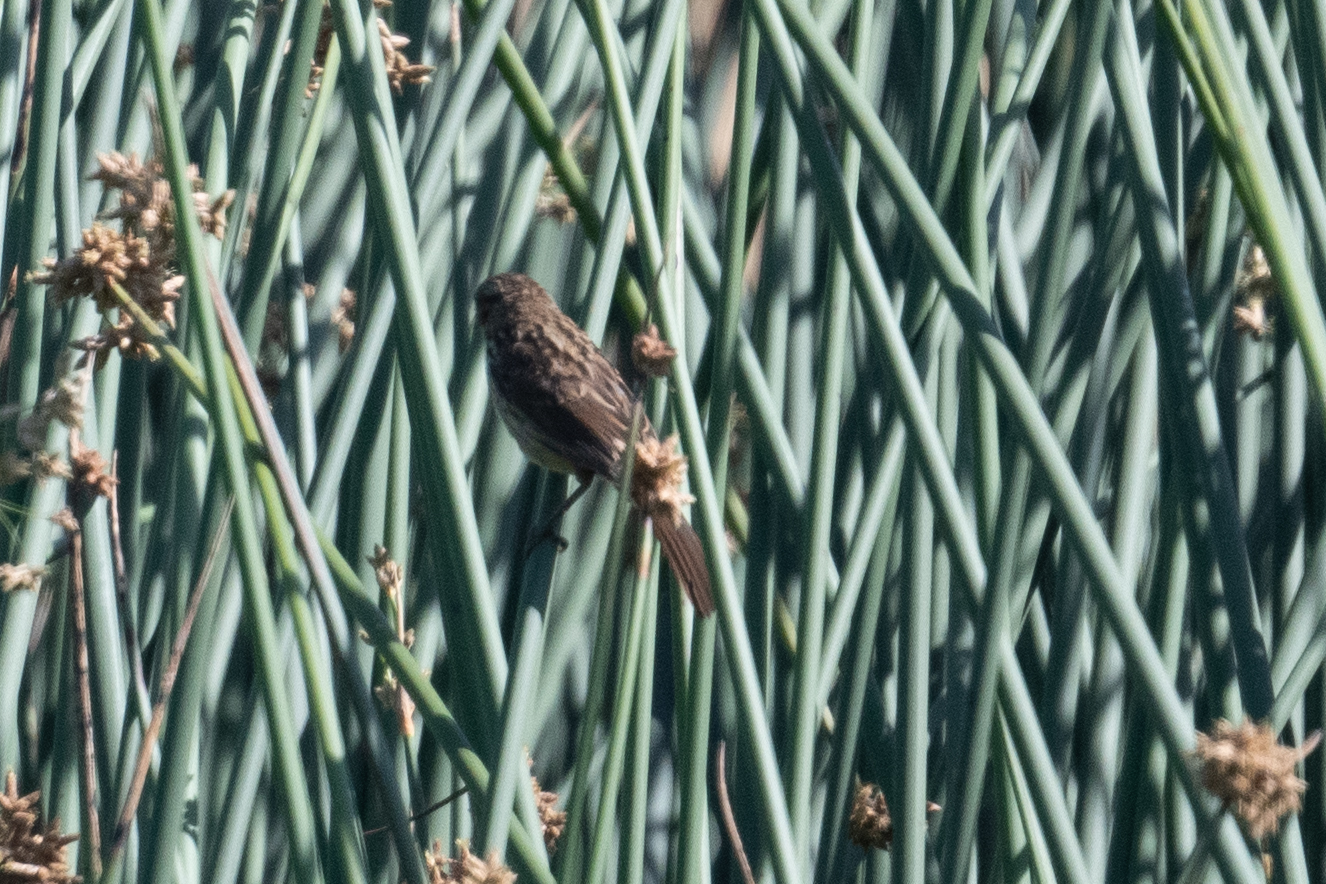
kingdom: Animalia
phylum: Chordata
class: Aves
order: Passeriformes
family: Passerellidae
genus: Melospiza
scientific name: Melospiza melodia
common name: Song sparrow
